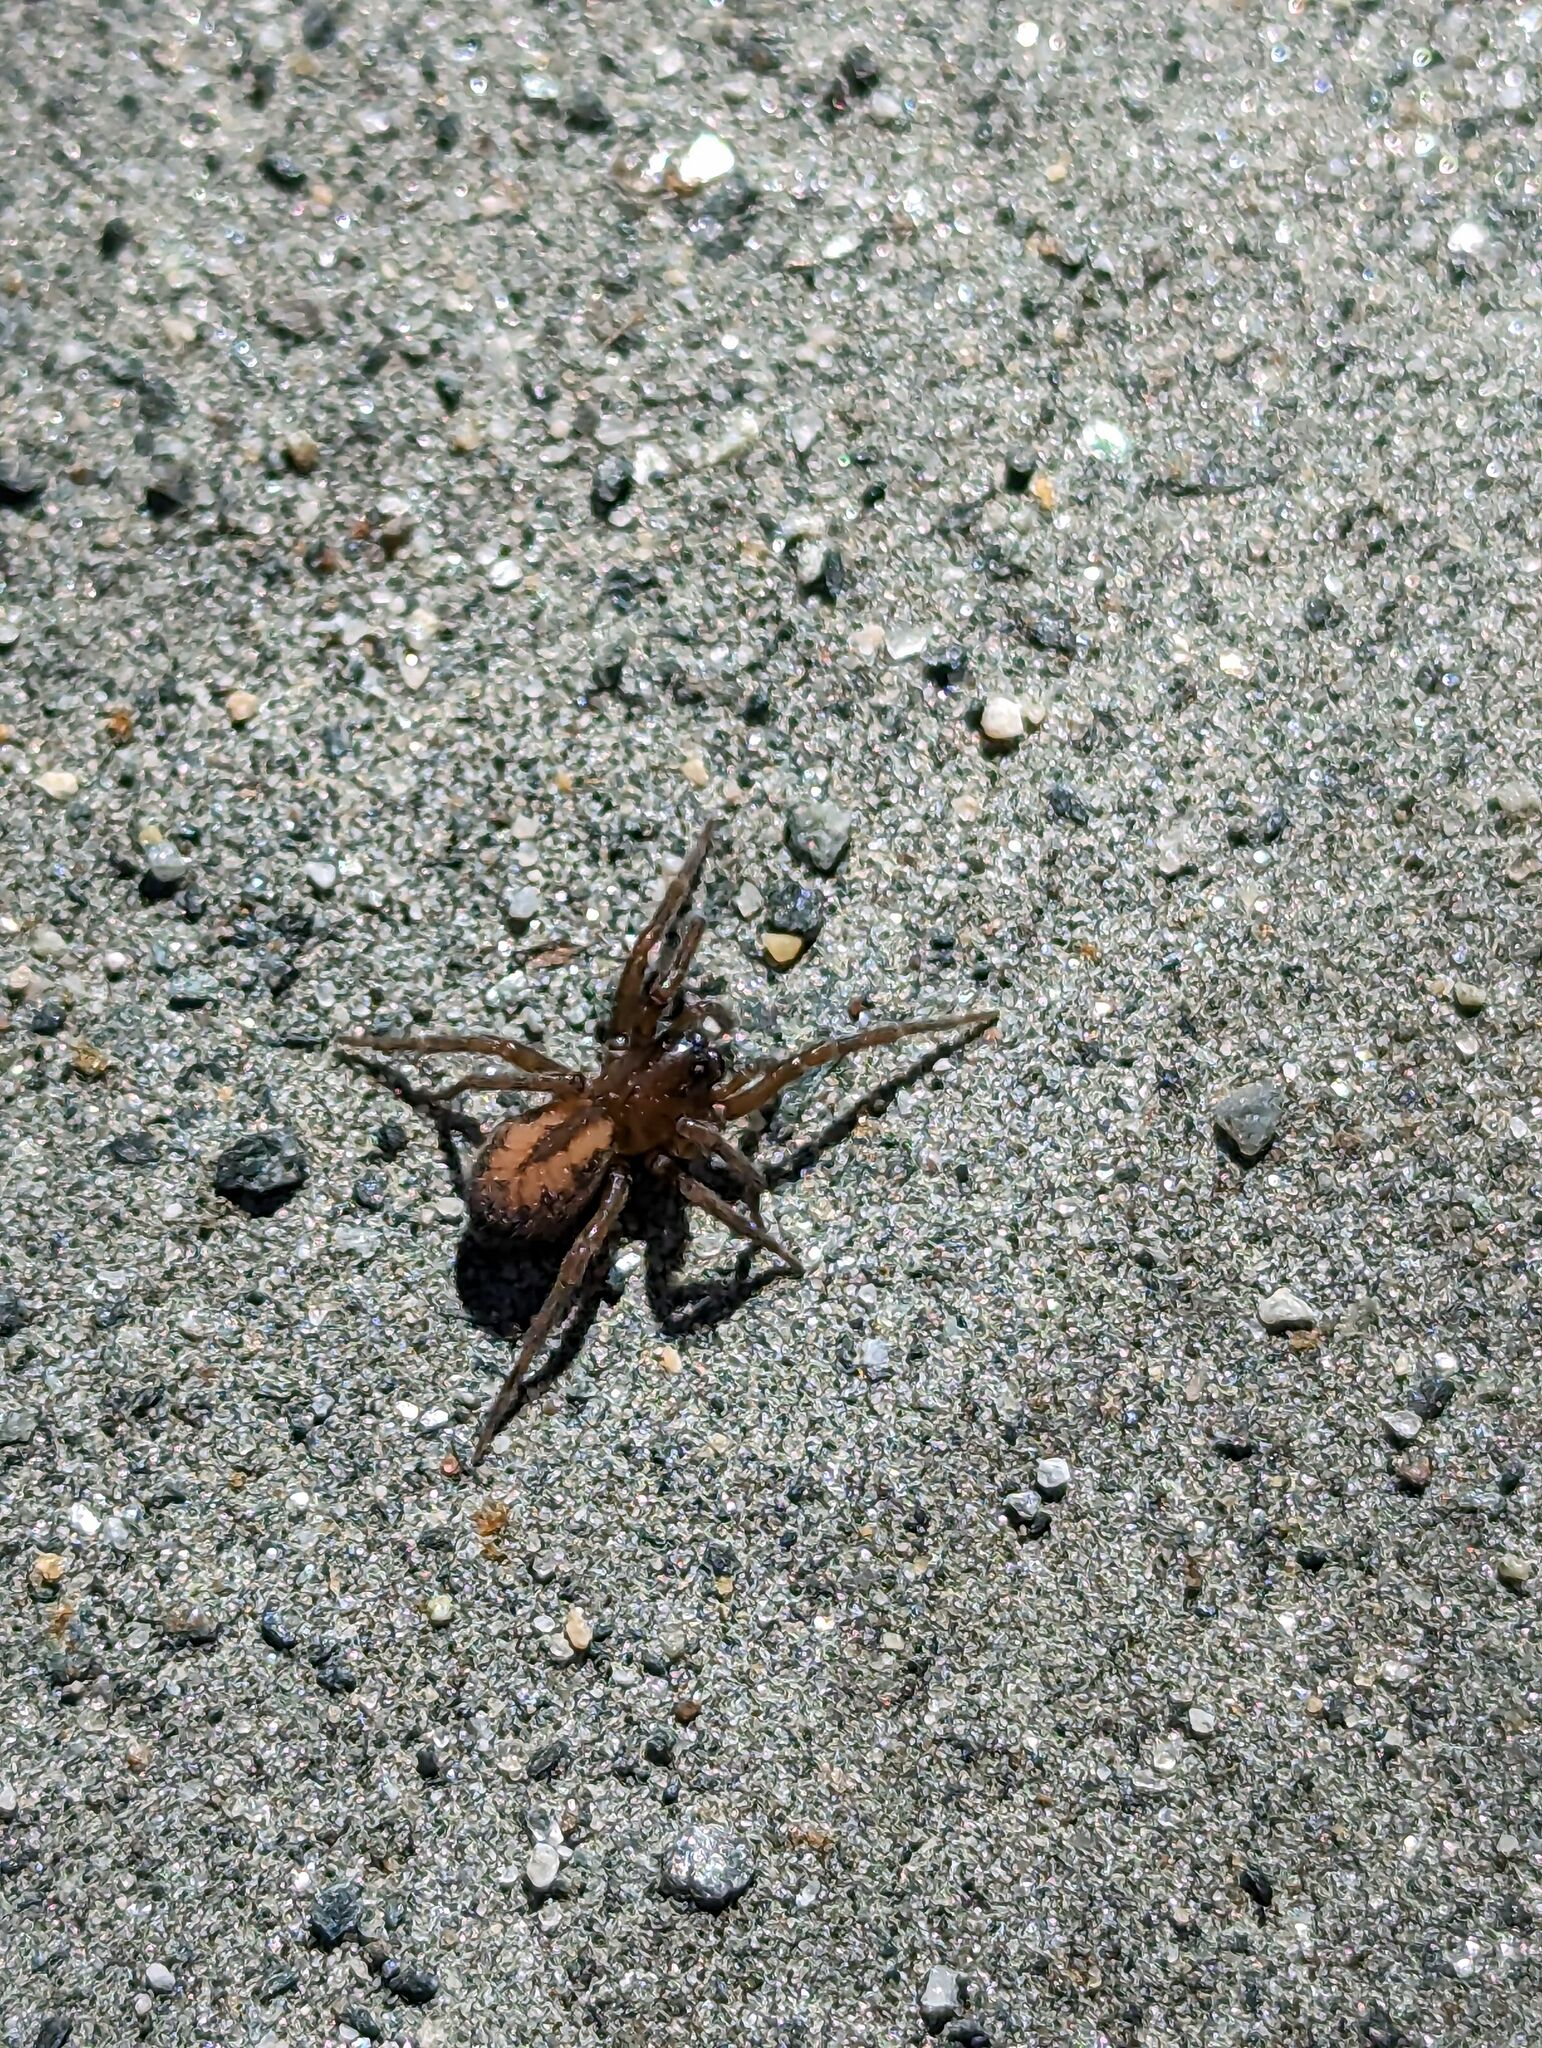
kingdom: Animalia
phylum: Arthropoda
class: Arachnida
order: Araneae
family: Amaurobiidae
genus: Callobius
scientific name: Callobius bennetti
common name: Bennett's laceweaver
